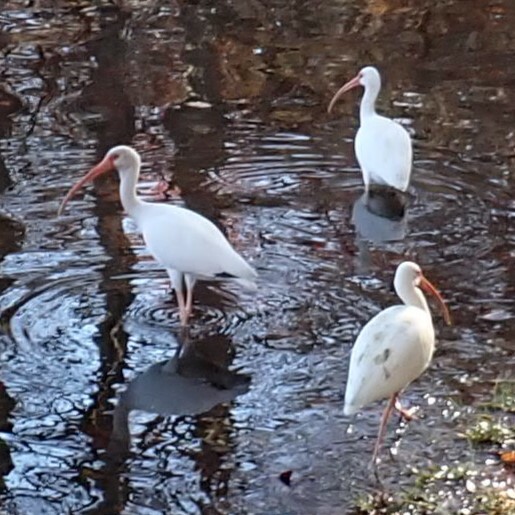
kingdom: Animalia
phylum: Chordata
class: Aves
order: Pelecaniformes
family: Threskiornithidae
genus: Eudocimus
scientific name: Eudocimus albus
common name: White ibis
